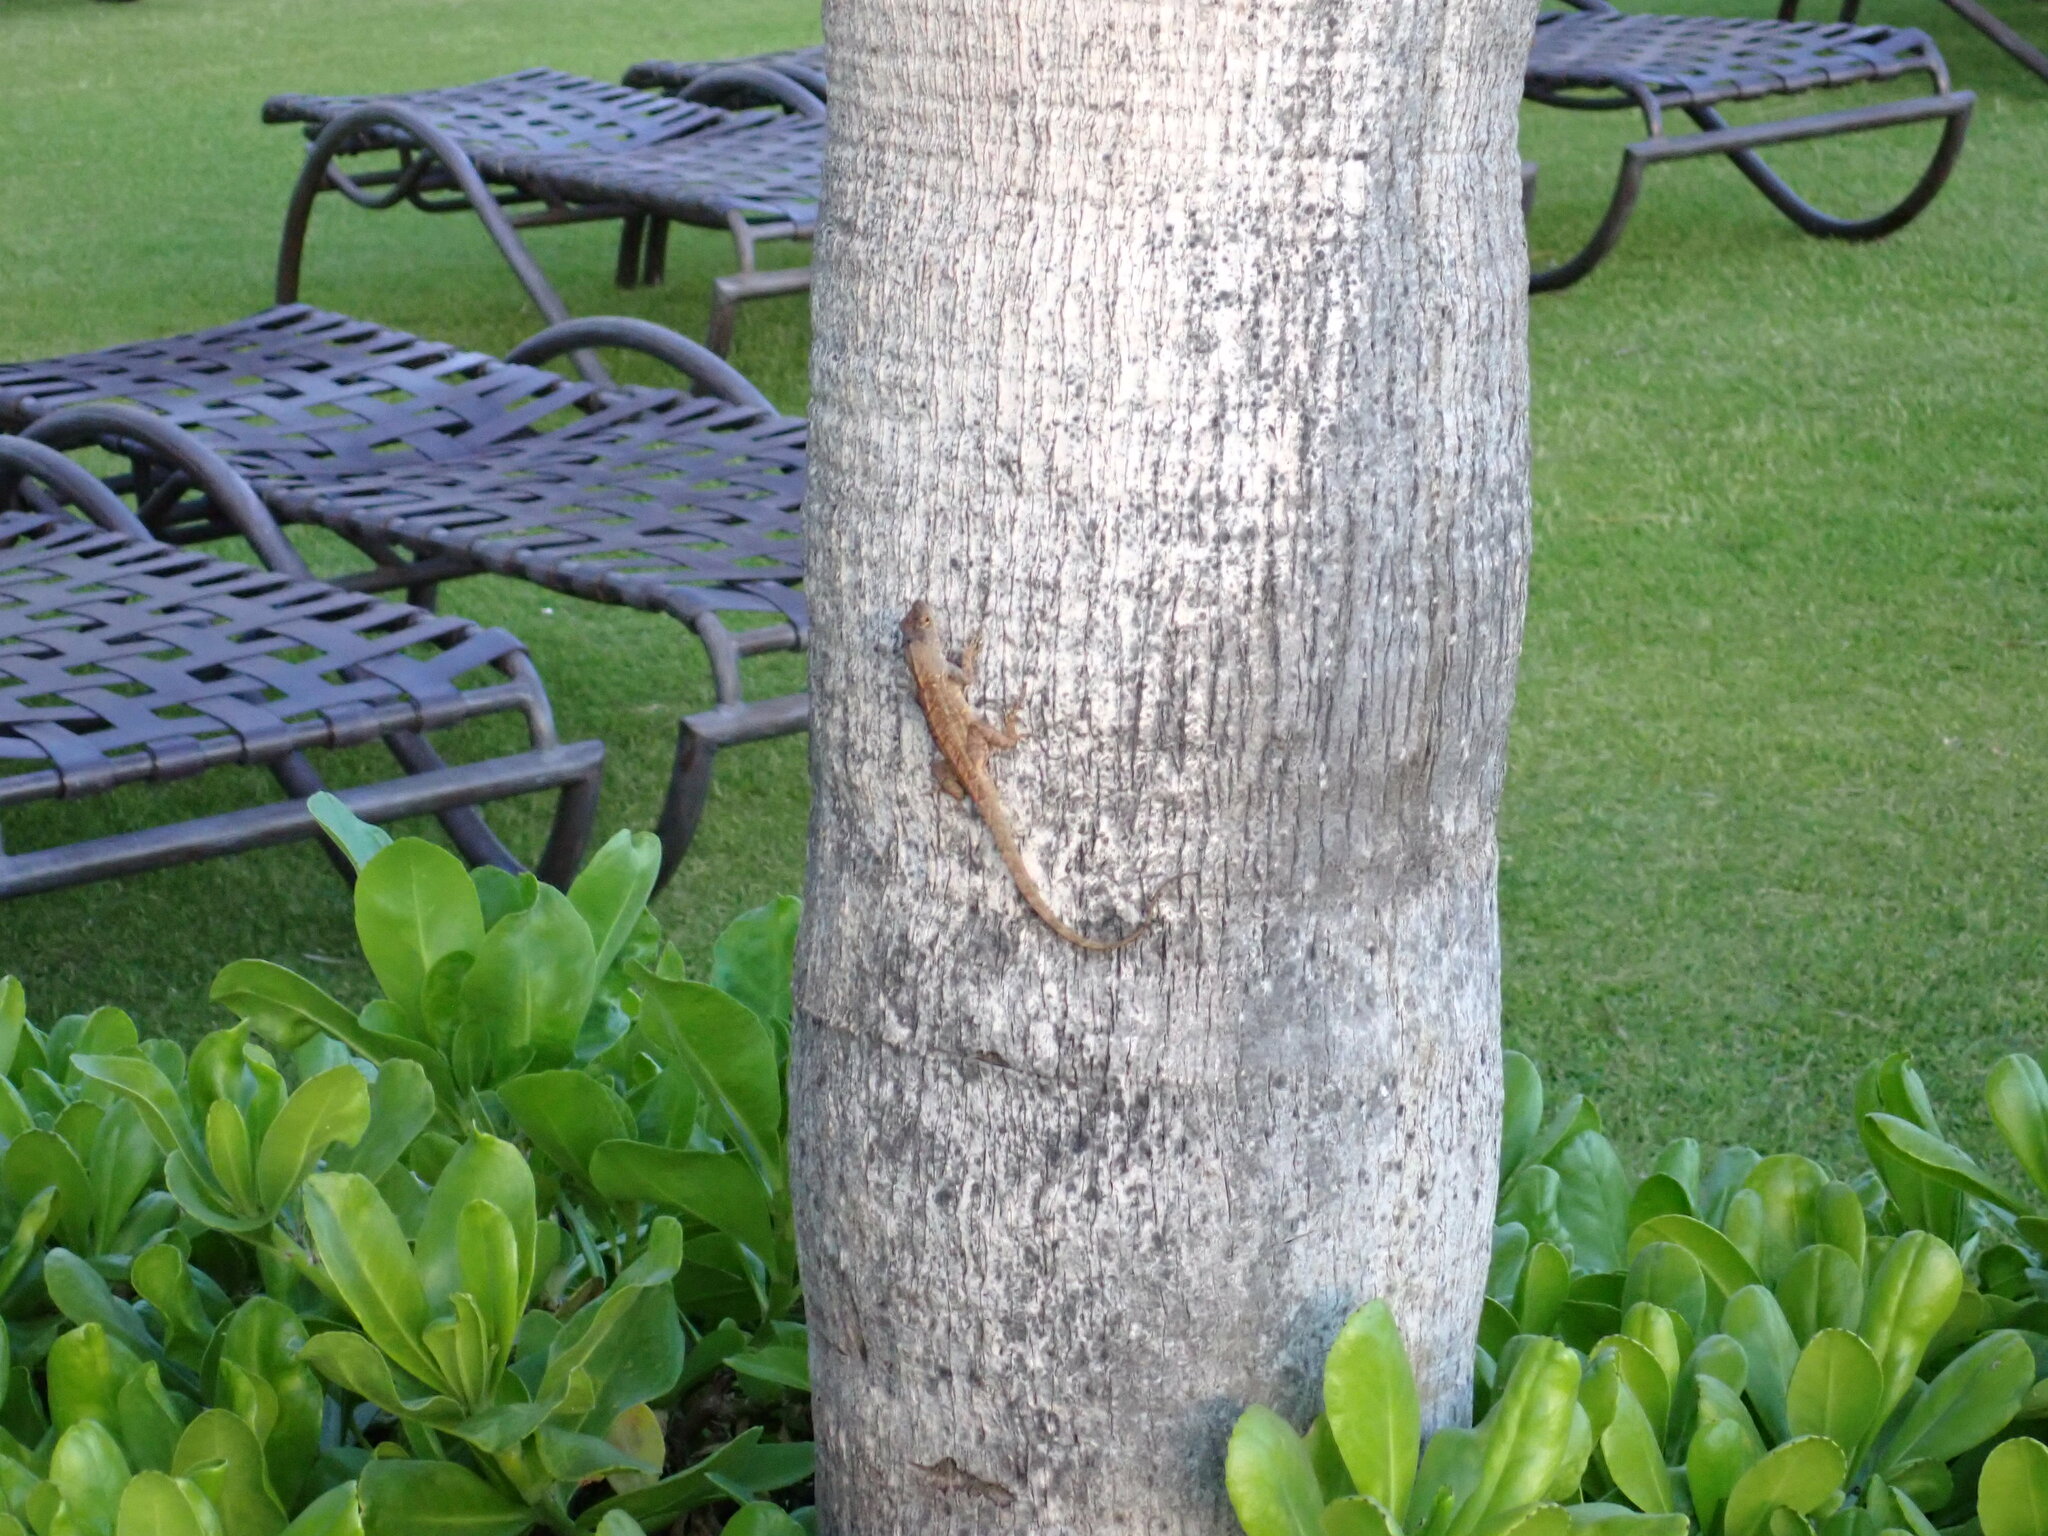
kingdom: Animalia
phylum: Chordata
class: Squamata
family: Dactyloidae
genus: Anolis
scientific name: Anolis sagrei
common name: Brown anole
